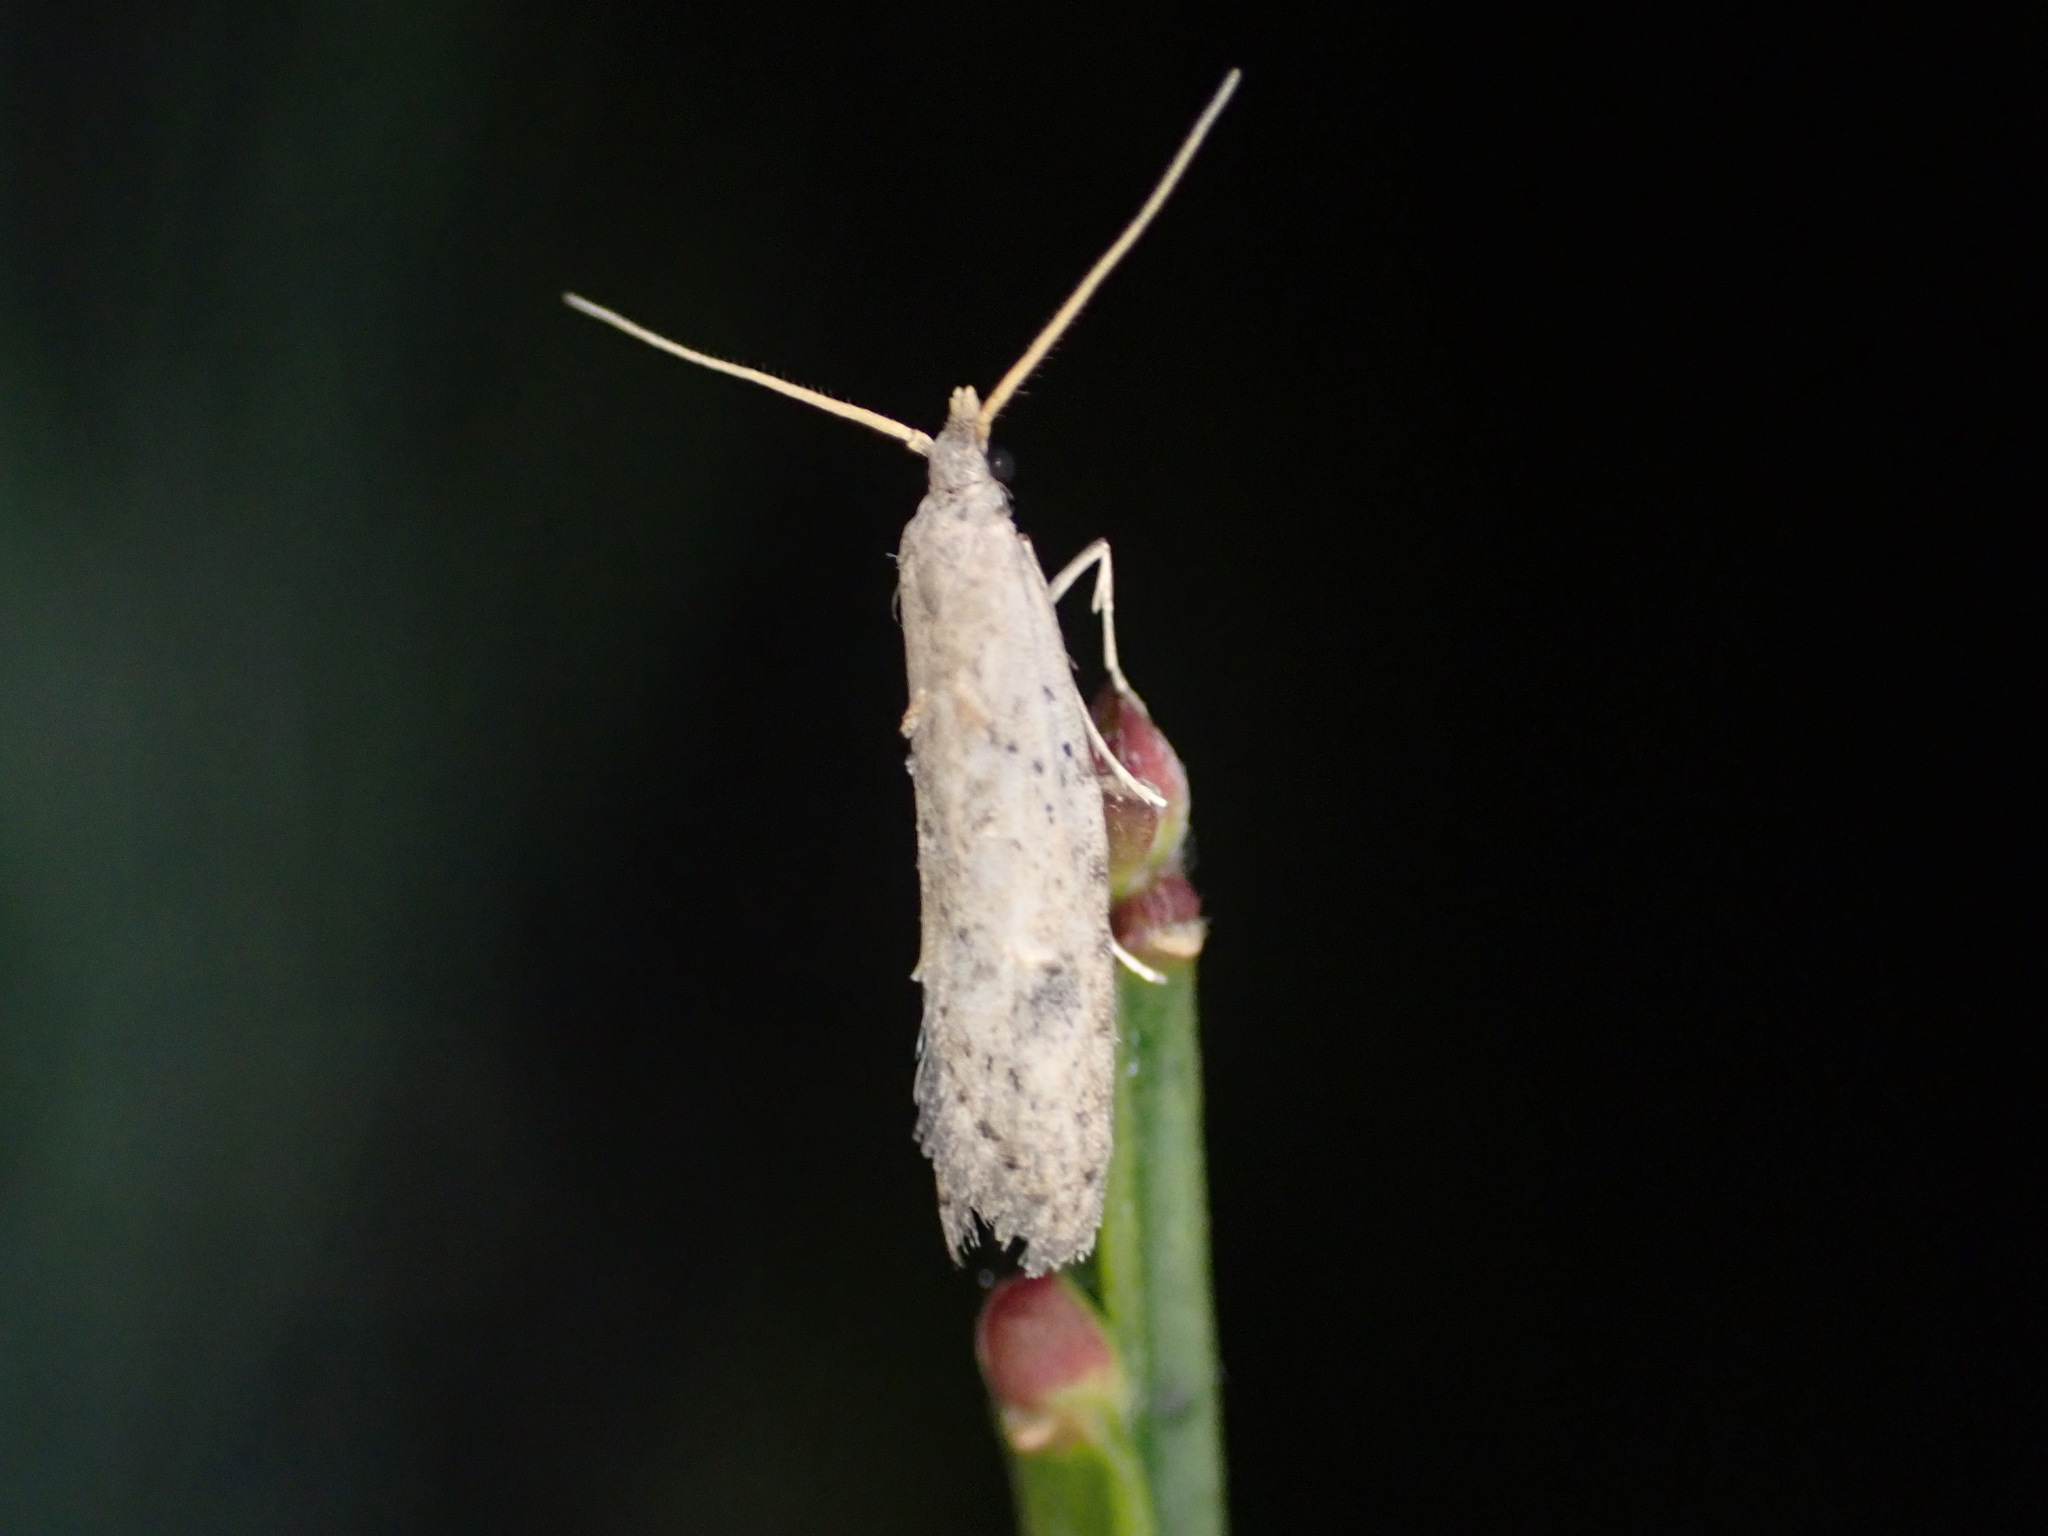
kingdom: Animalia
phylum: Arthropoda
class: Insecta
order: Lepidoptera
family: Carposinidae
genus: Carposina
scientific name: Carposina rubophaga
